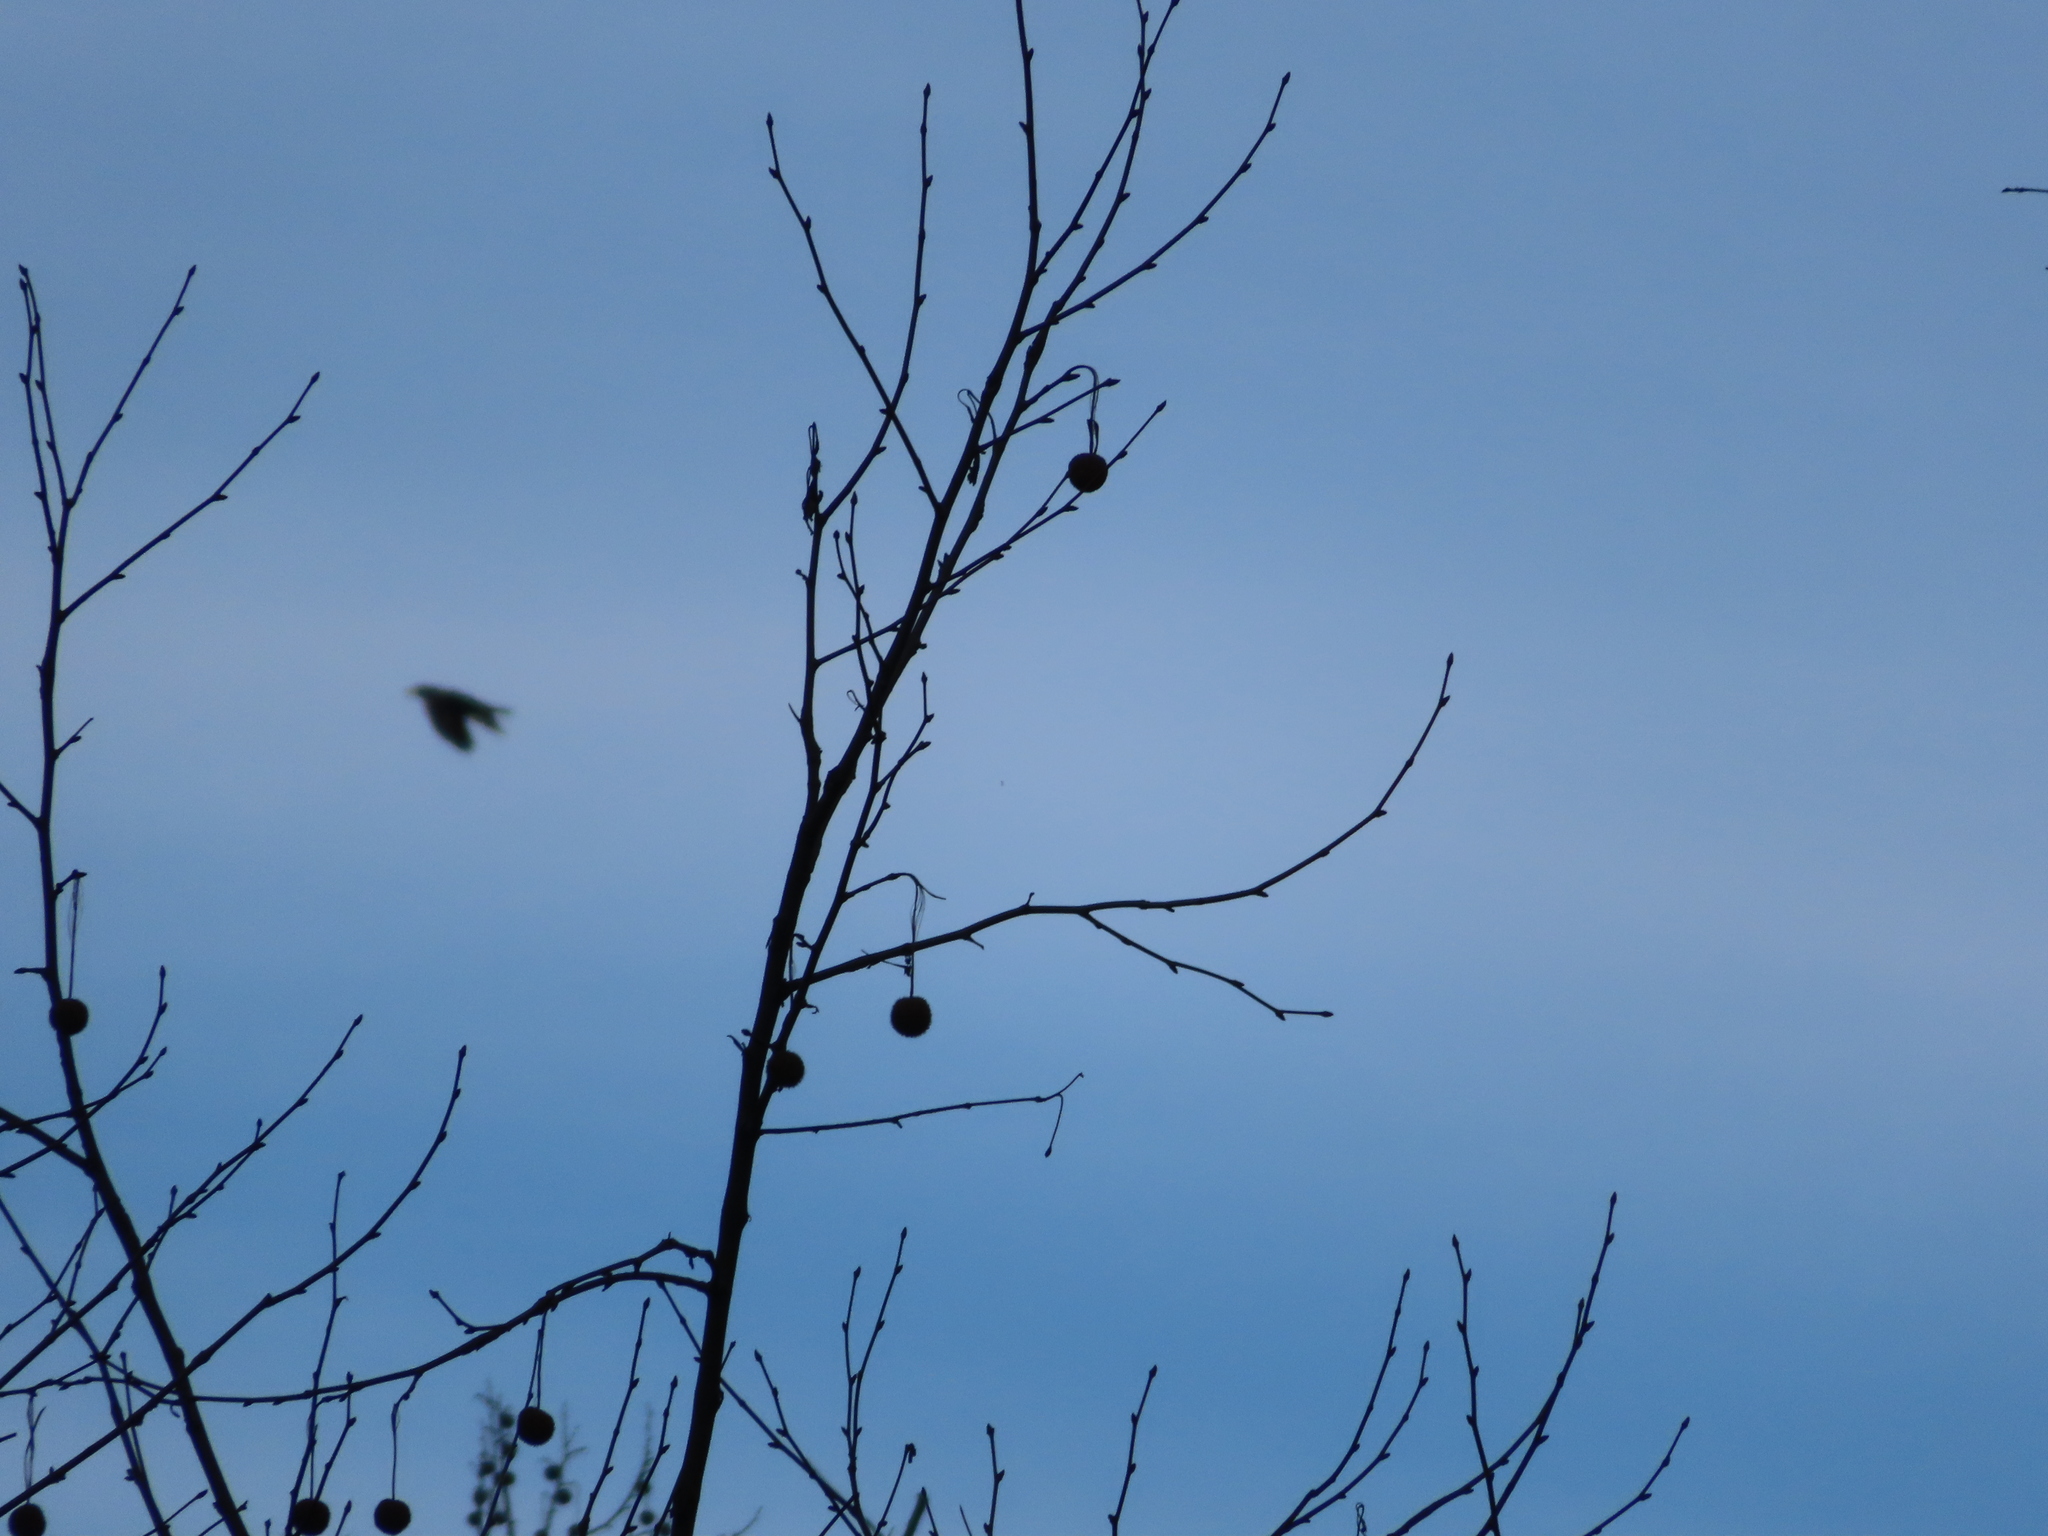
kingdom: Animalia
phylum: Chordata
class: Aves
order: Passeriformes
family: Corvidae
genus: Corvus
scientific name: Corvus corax
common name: Common raven
